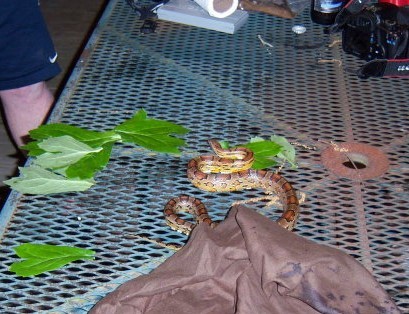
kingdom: Animalia
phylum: Chordata
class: Squamata
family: Colubridae
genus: Pantherophis
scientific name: Pantherophis guttatus
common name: Red cornsnake
